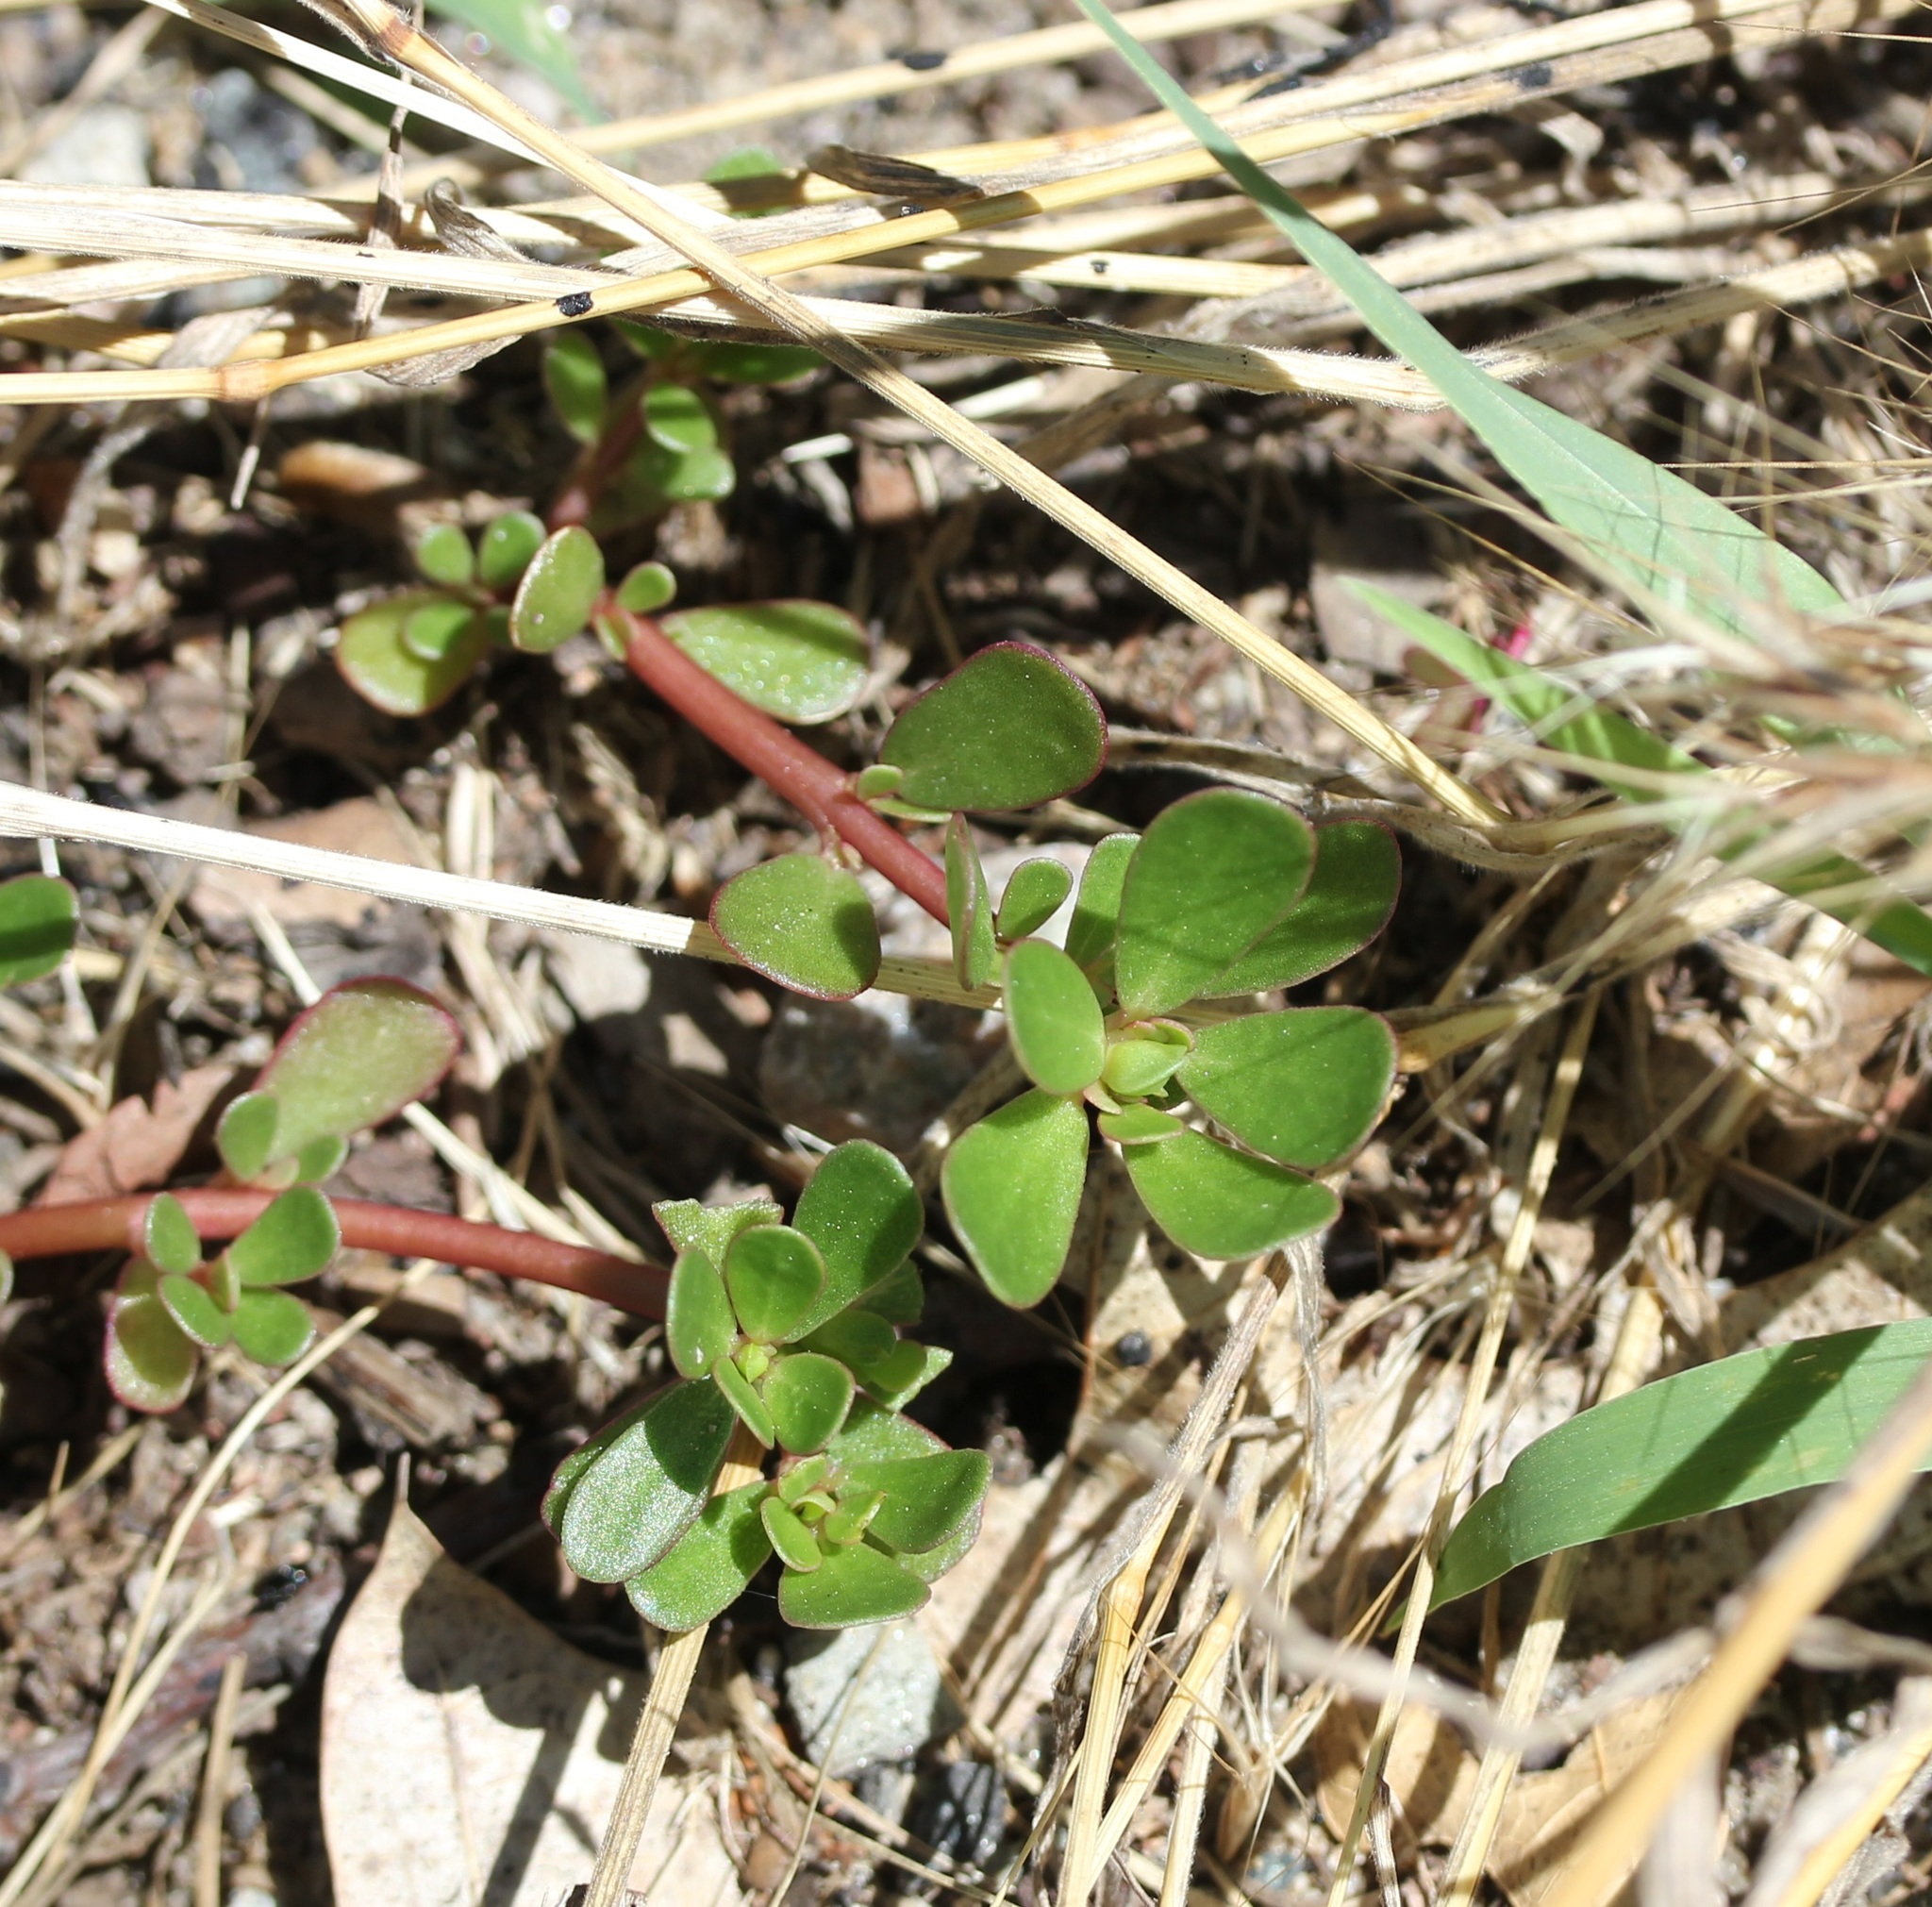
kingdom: Plantae
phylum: Tracheophyta
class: Magnoliopsida
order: Caryophyllales
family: Portulacaceae
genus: Portulaca
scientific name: Portulaca oleracea
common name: Common purslane
